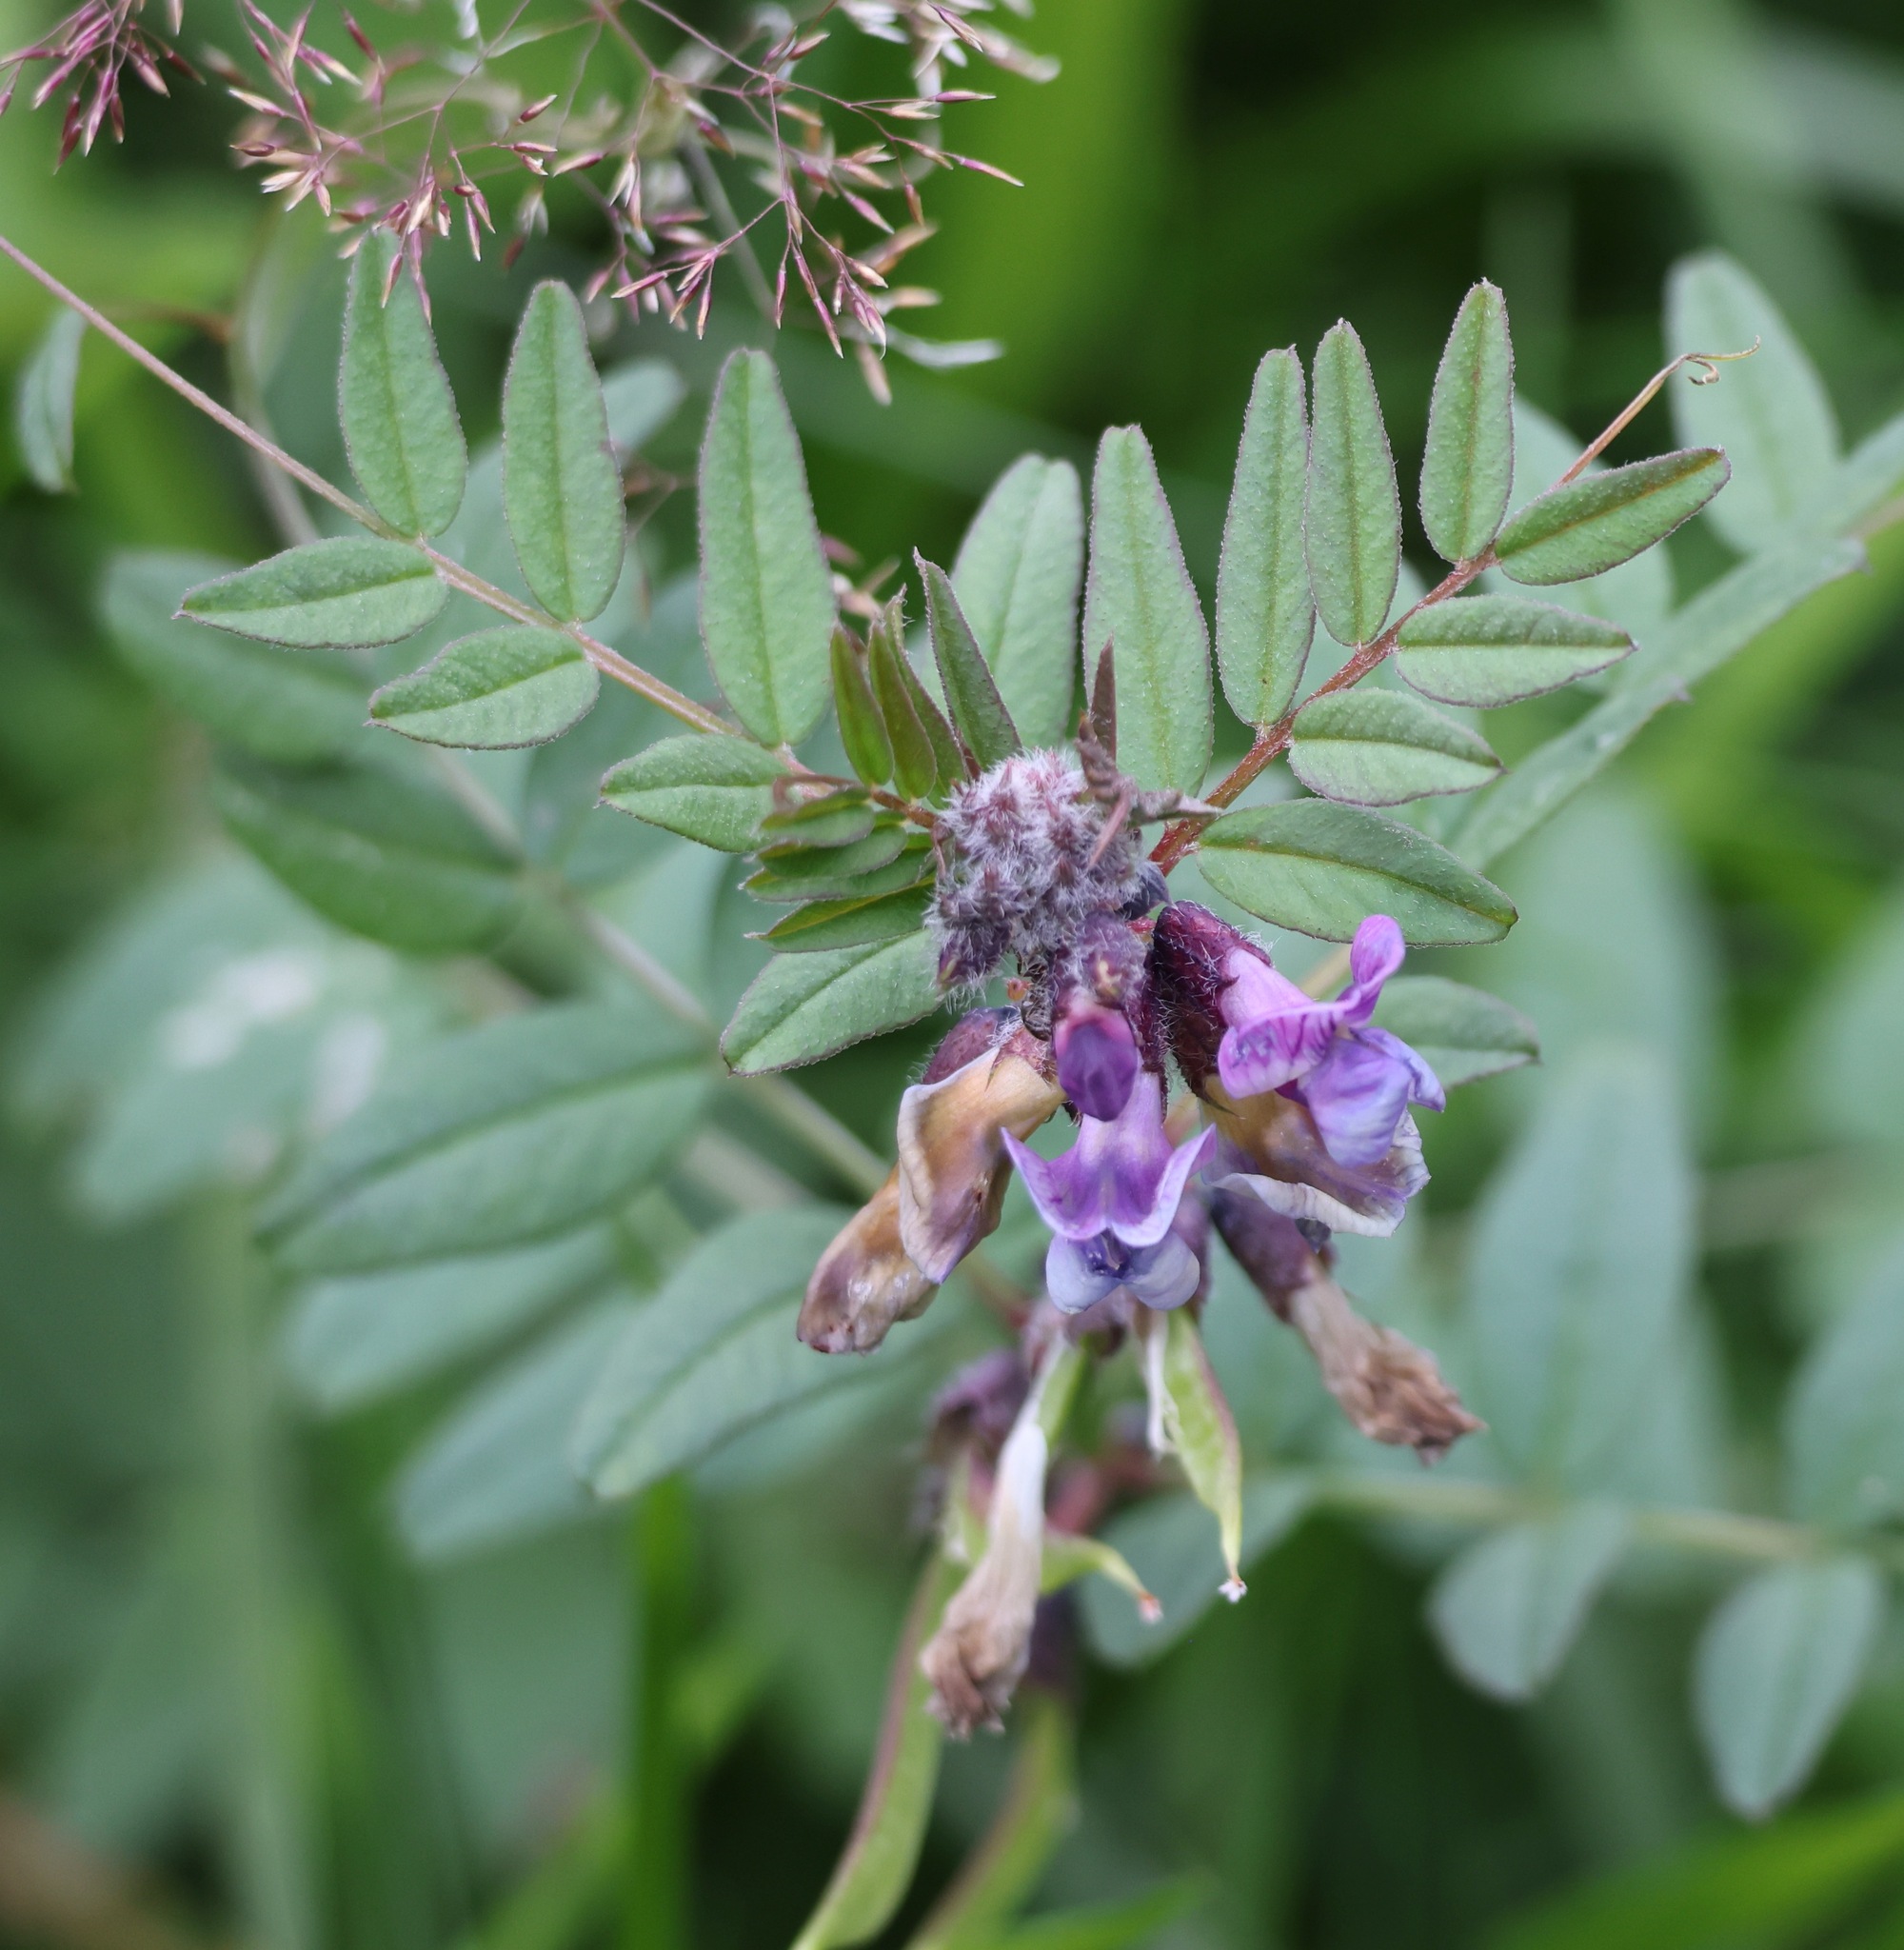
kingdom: Plantae
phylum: Tracheophyta
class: Magnoliopsida
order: Fabales
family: Fabaceae
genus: Vicia
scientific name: Vicia sepium
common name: Bush vetch
